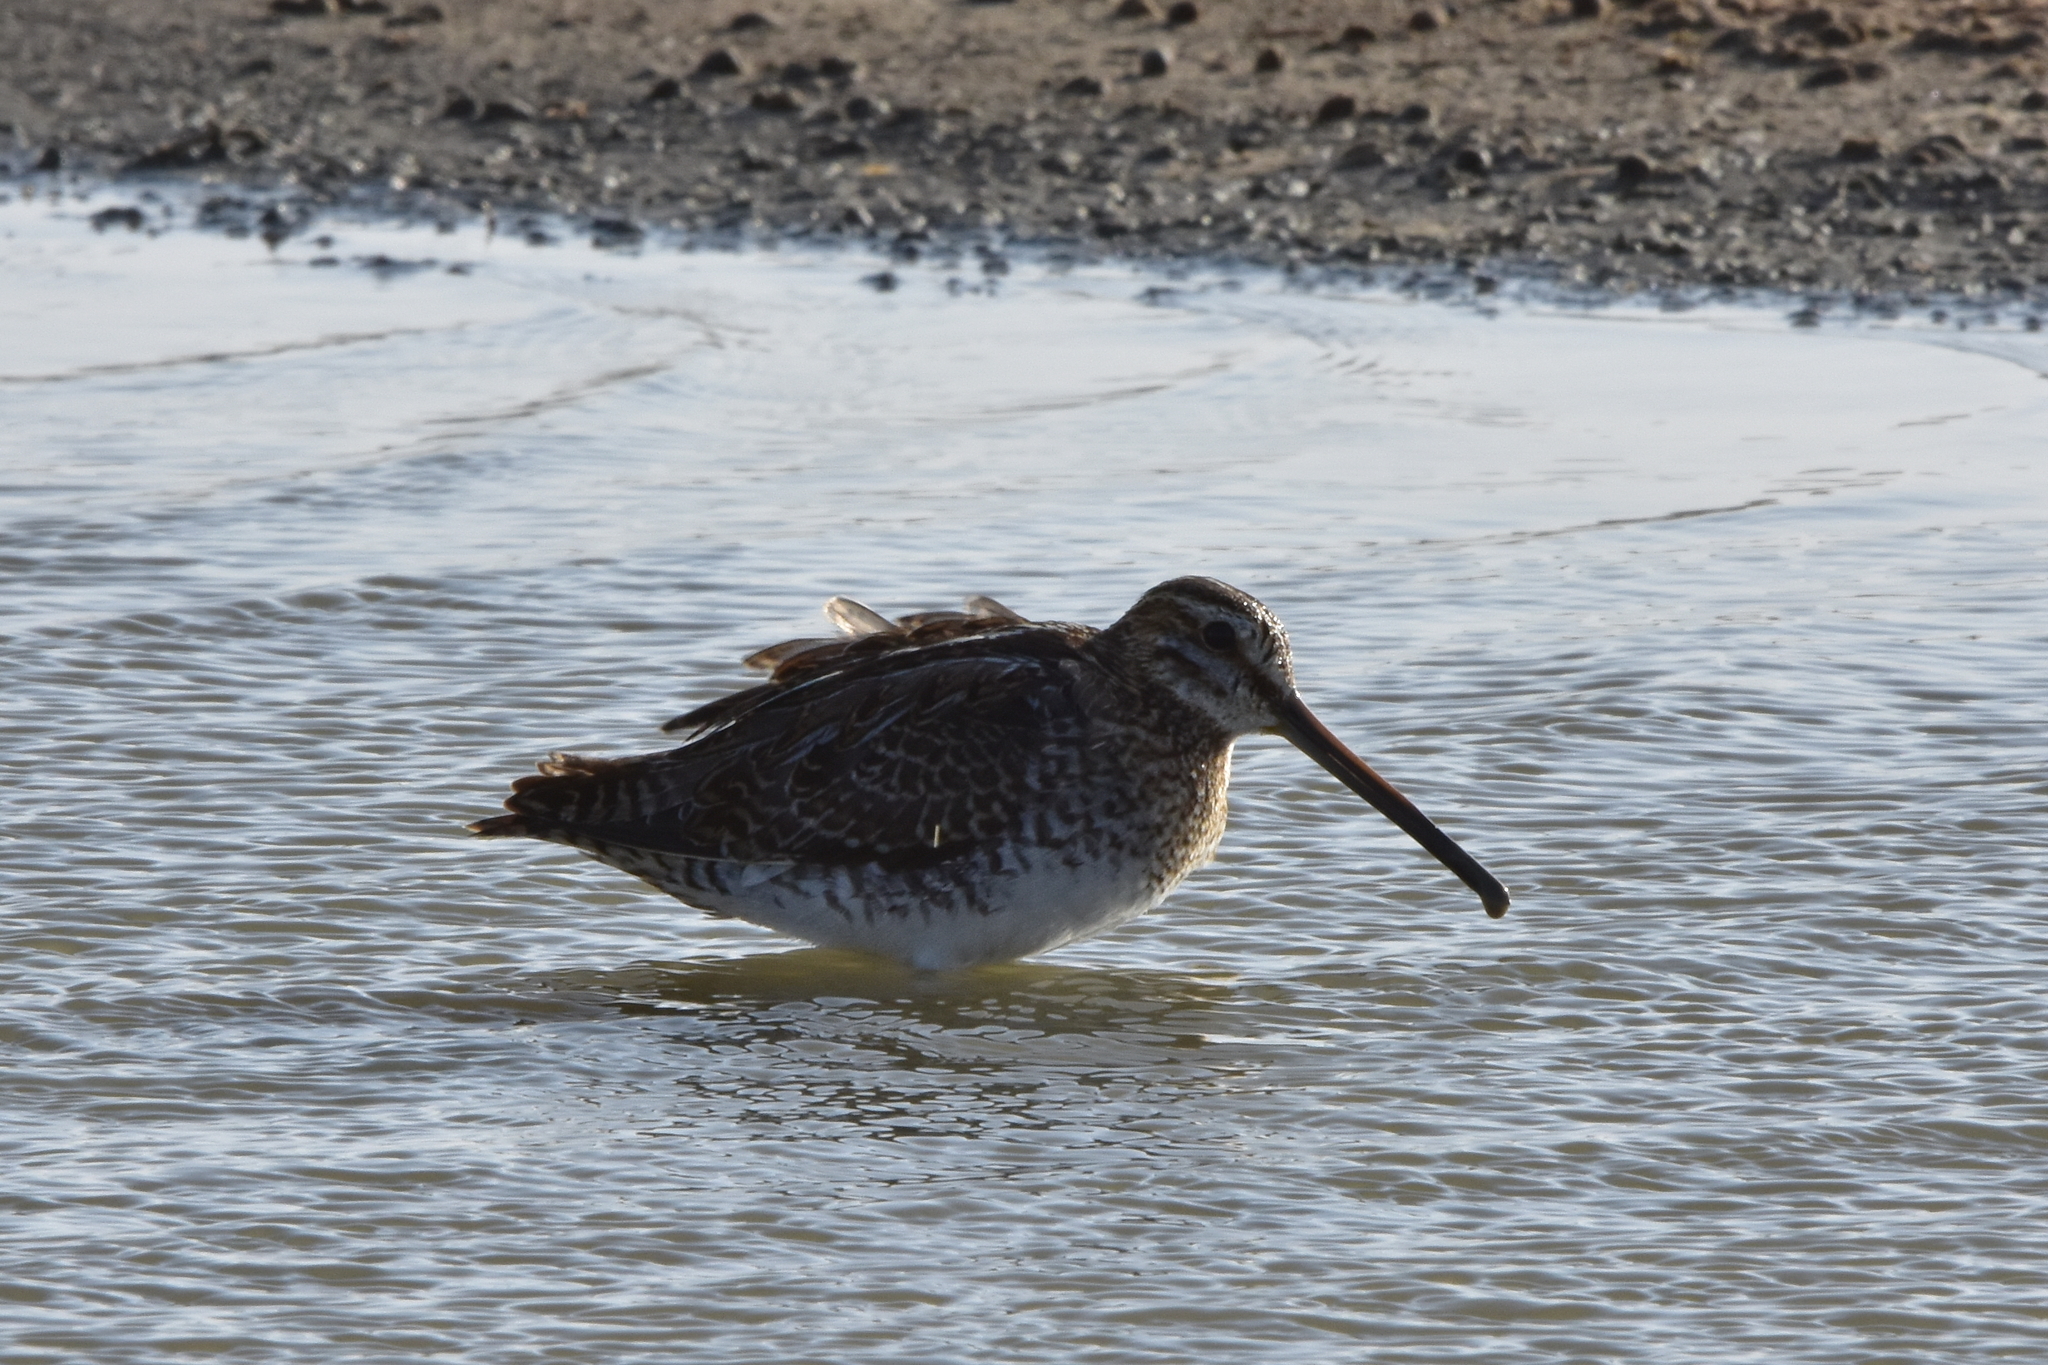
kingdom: Animalia
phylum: Chordata
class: Aves
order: Charadriiformes
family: Scolopacidae
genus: Gallinago
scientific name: Gallinago gallinago
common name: Common snipe
